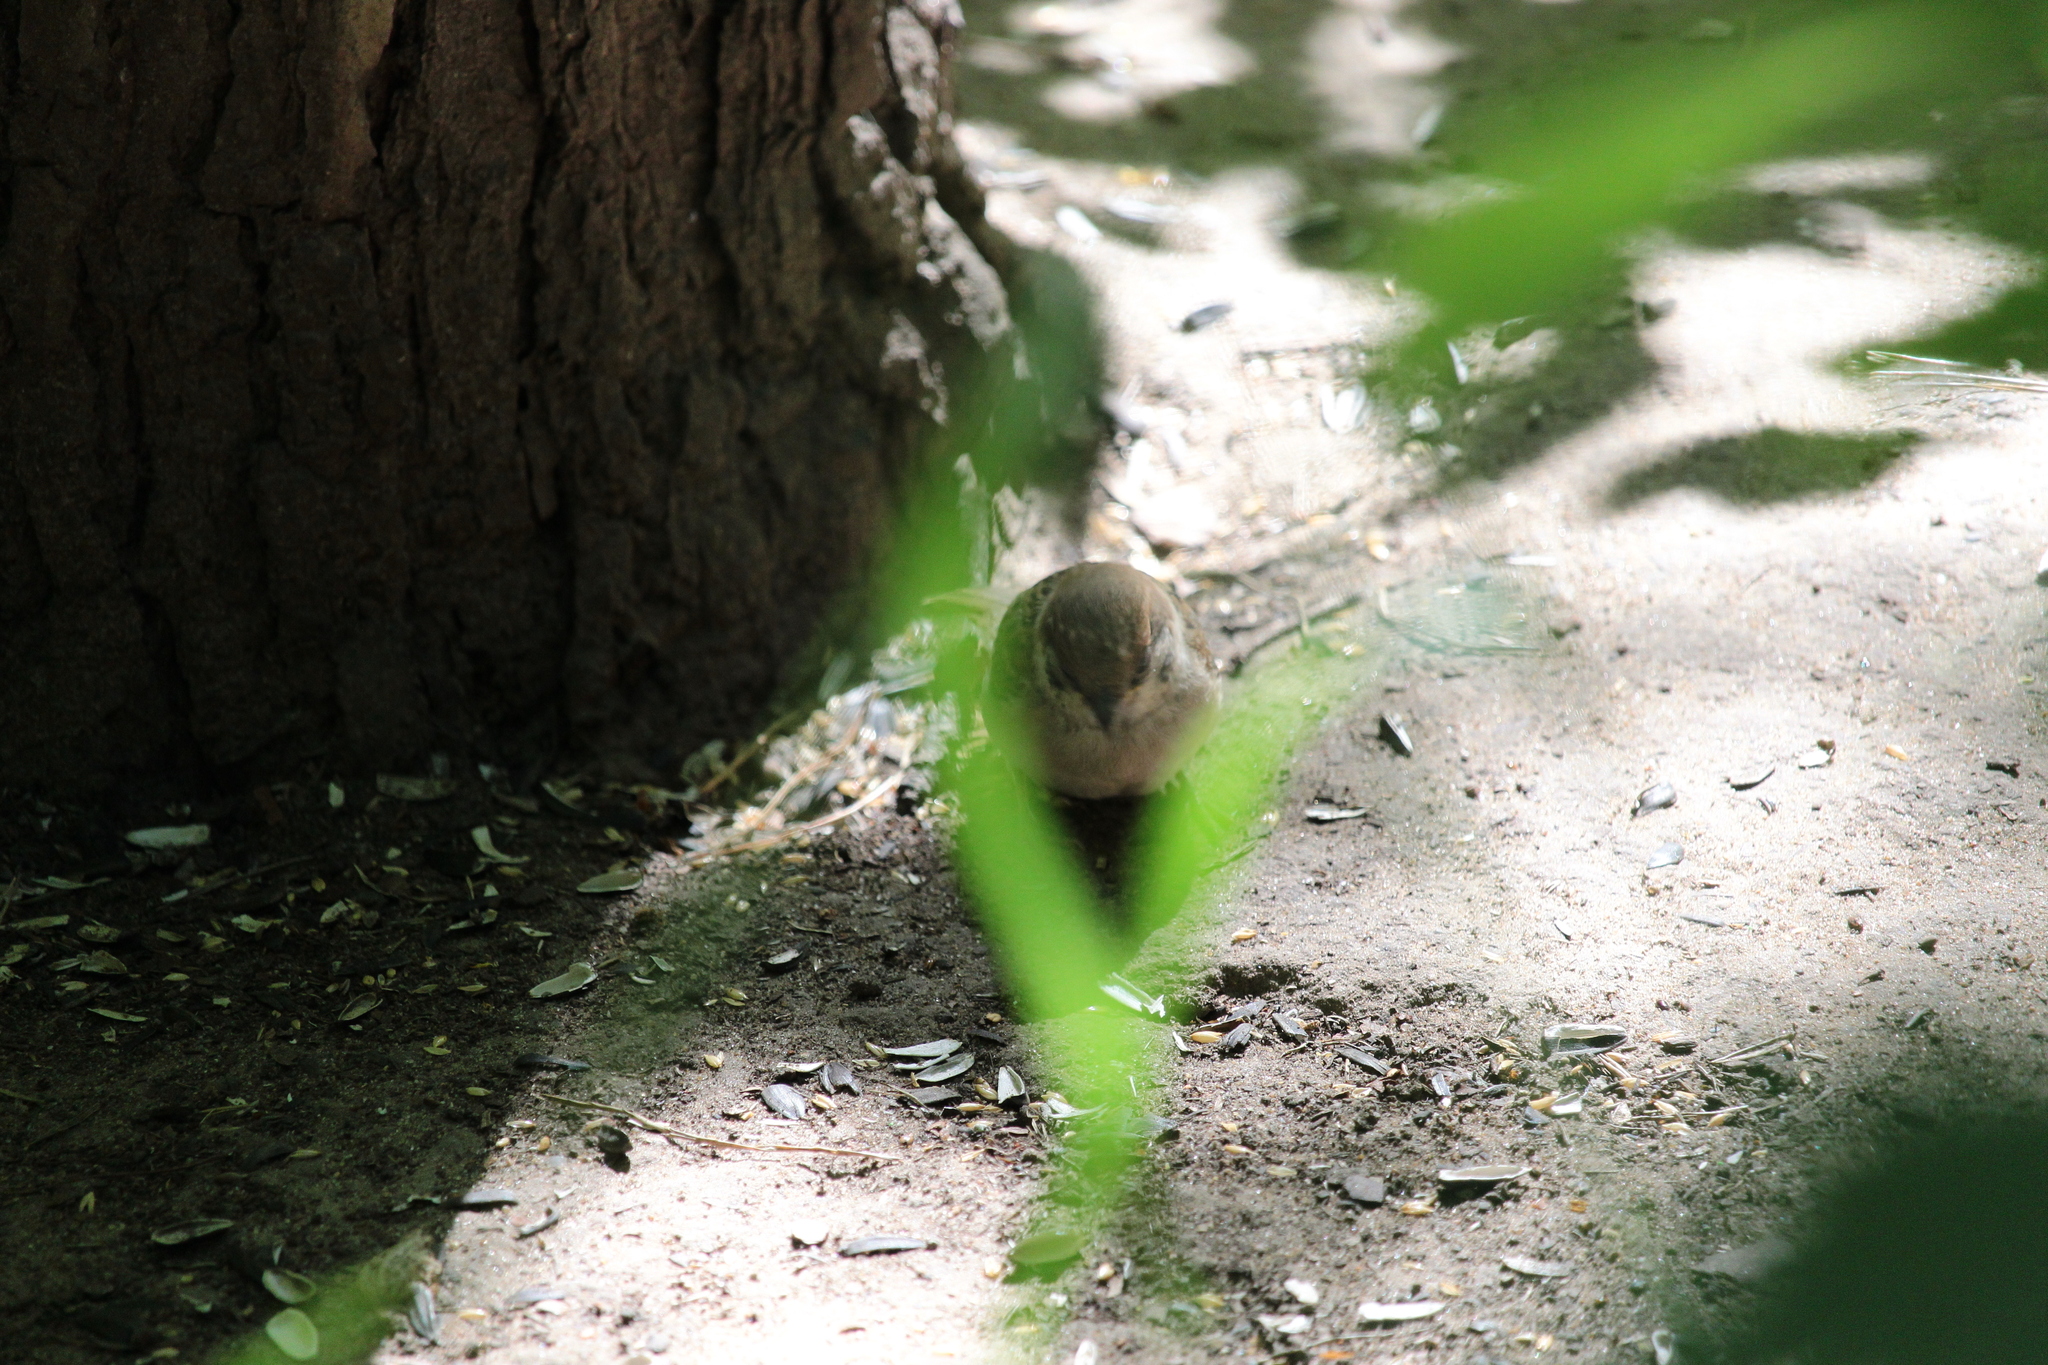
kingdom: Animalia
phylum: Chordata
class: Aves
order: Passeriformes
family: Passeridae
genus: Passer
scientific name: Passer montanus
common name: Eurasian tree sparrow
